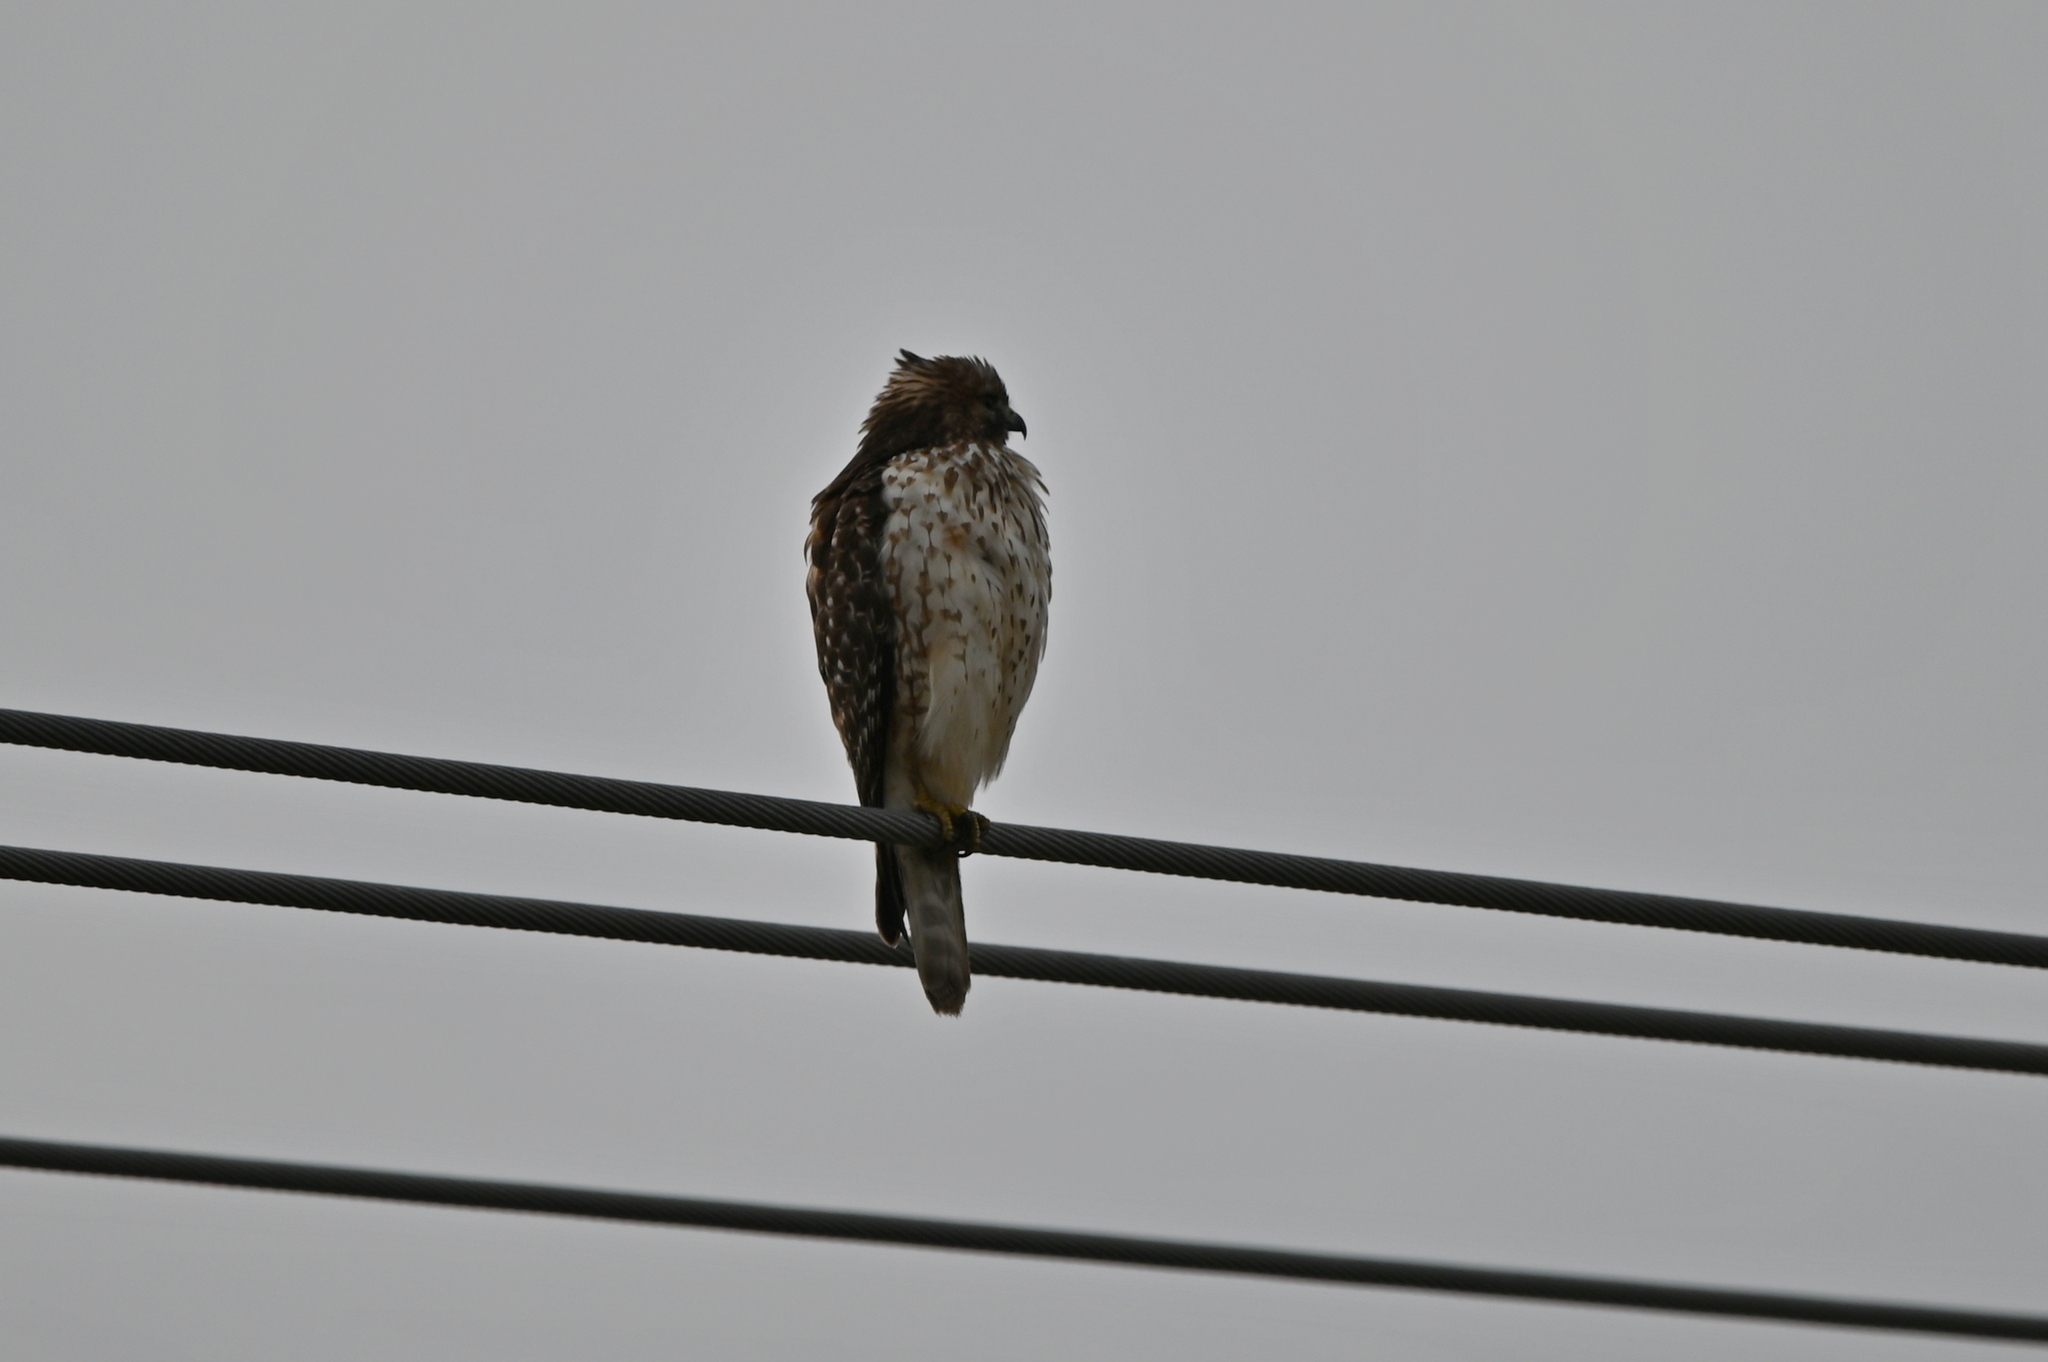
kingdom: Animalia
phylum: Chordata
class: Aves
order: Accipitriformes
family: Accipitridae
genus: Buteo
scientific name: Buteo lineatus
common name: Red-shouldered hawk
